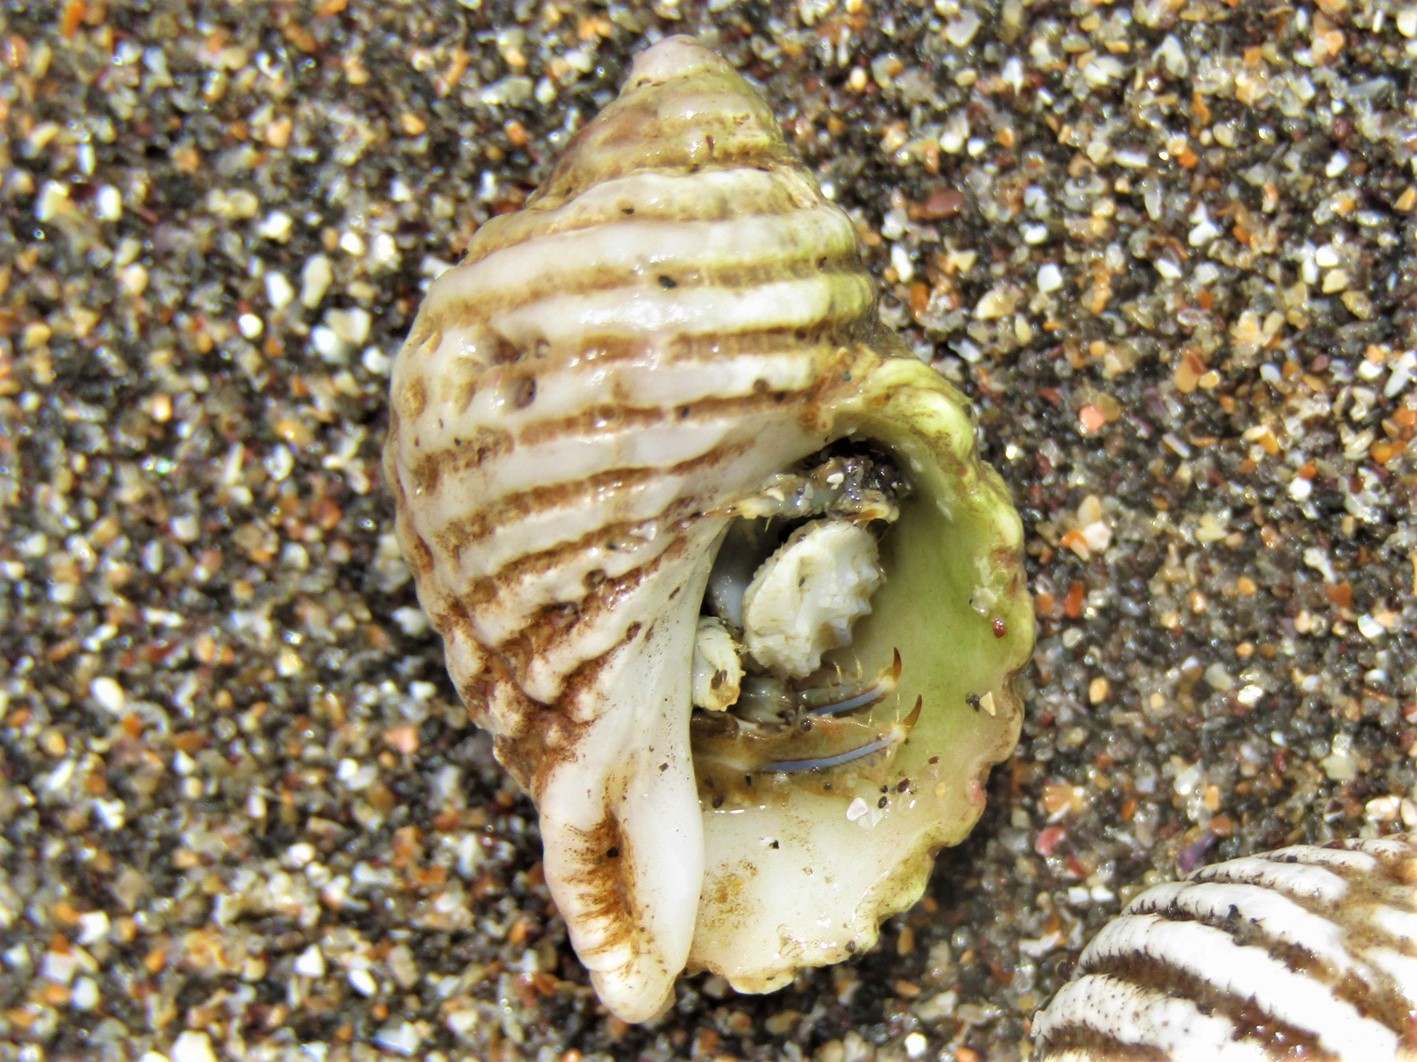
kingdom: Animalia
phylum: Arthropoda
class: Malacostraca
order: Decapoda
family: Paguridae
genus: Pagurus
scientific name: Pagurus novizealandiae
